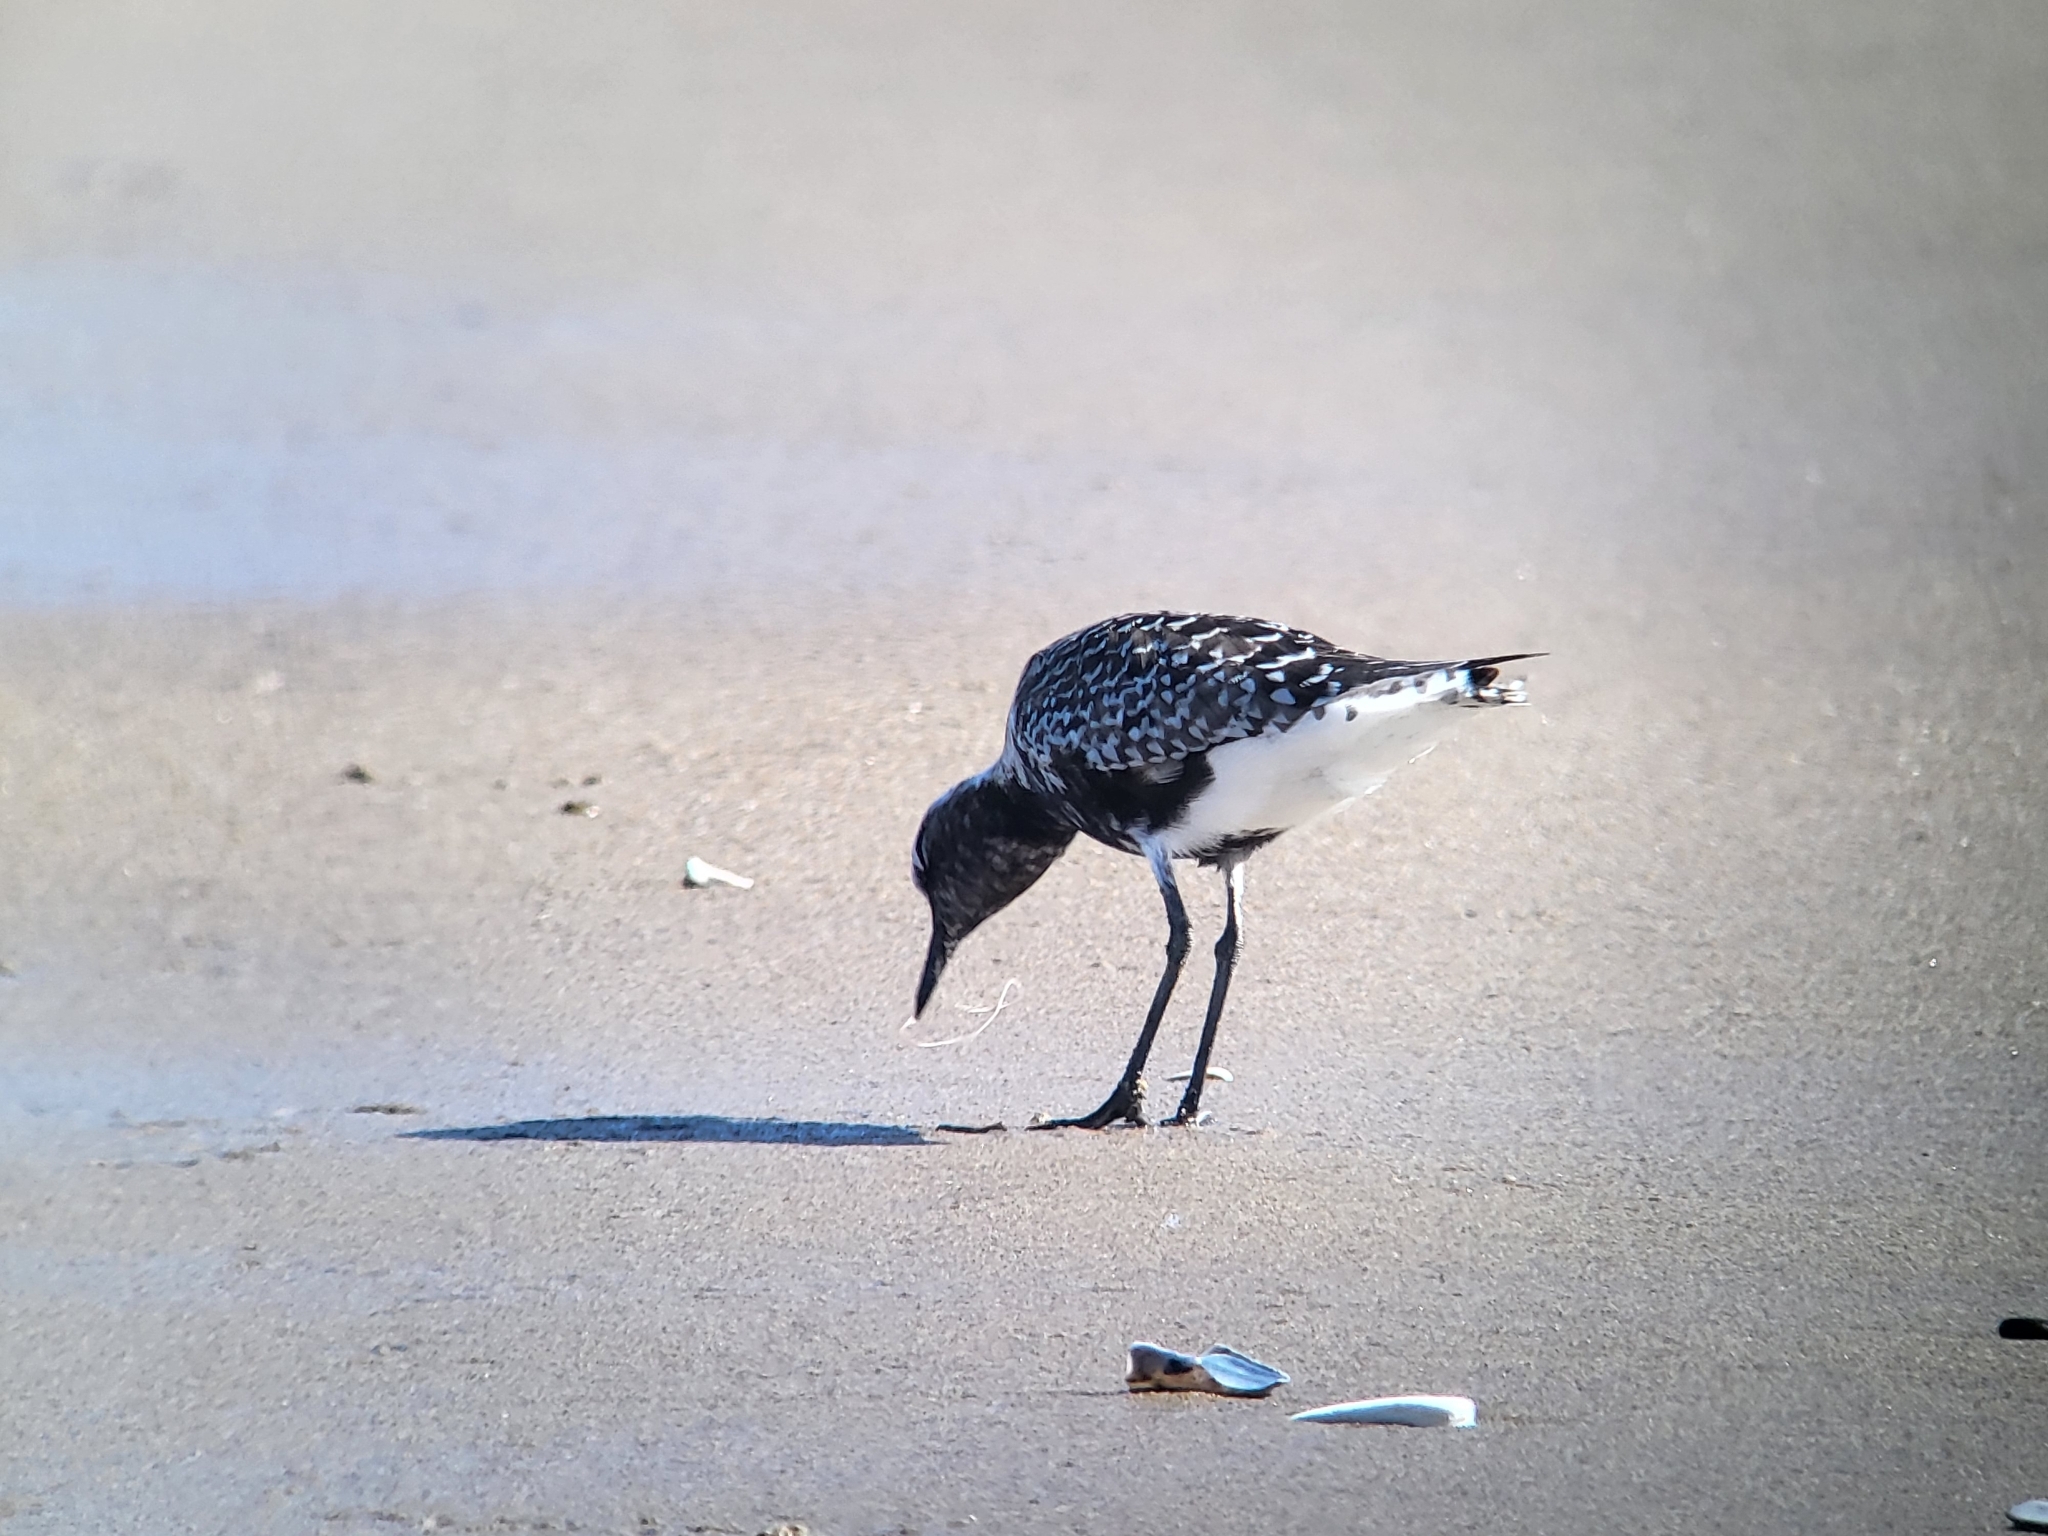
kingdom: Animalia
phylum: Chordata
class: Aves
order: Charadriiformes
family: Charadriidae
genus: Pluvialis
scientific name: Pluvialis squatarola
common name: Grey plover
